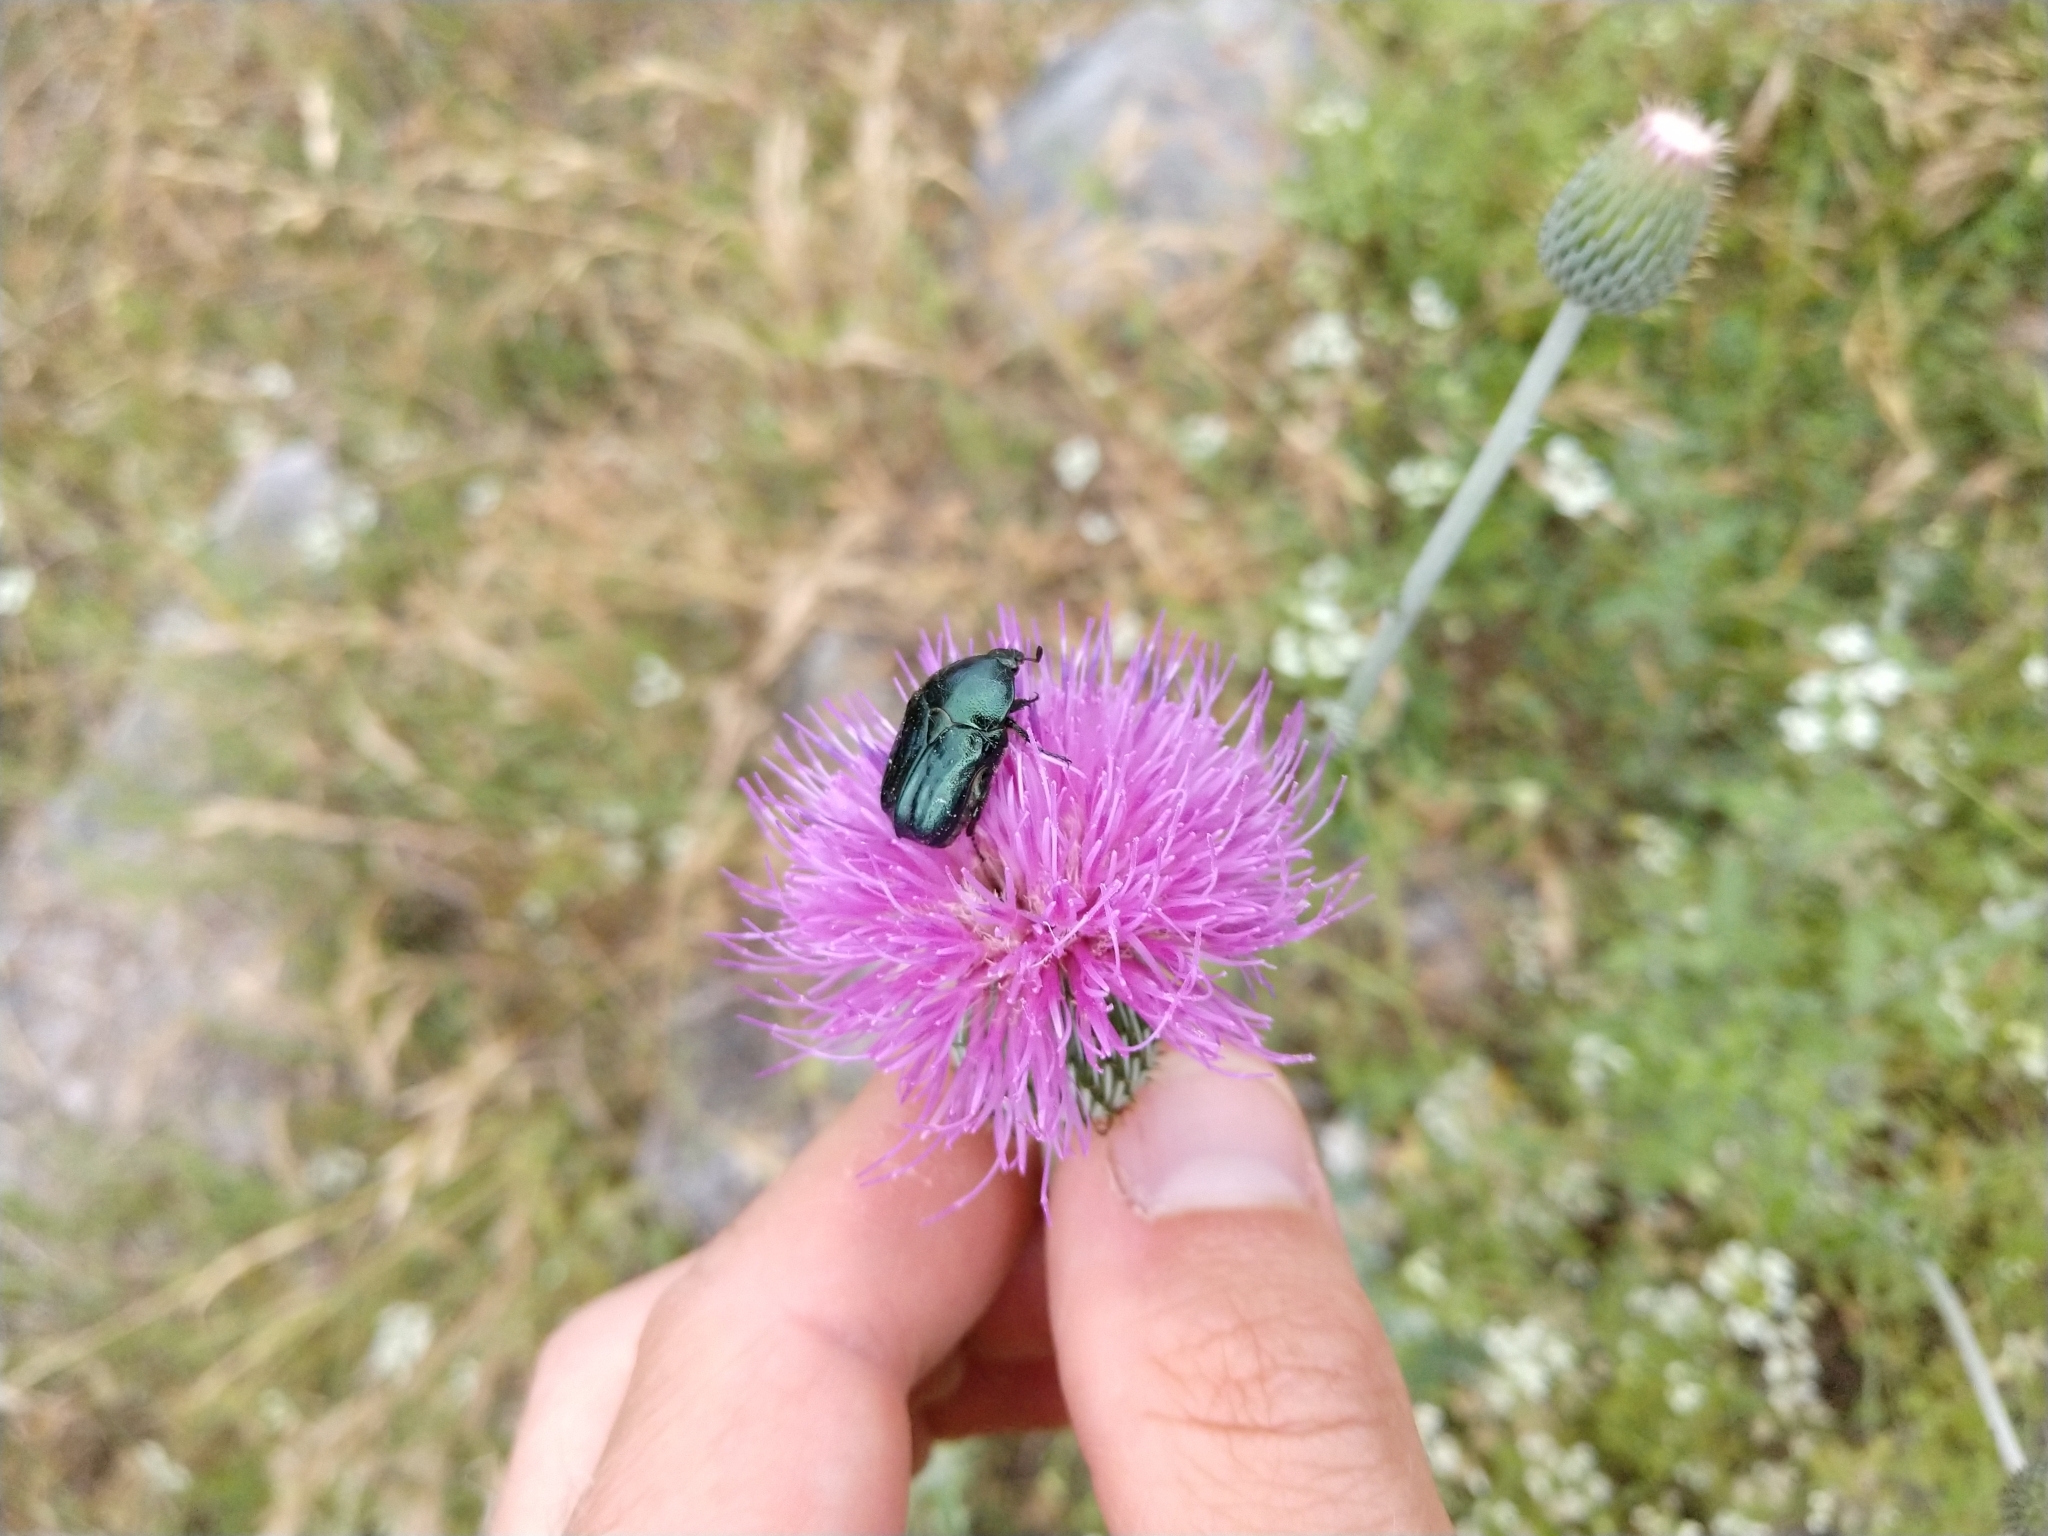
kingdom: Animalia
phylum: Arthropoda
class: Insecta
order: Coleoptera
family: Scarabaeidae
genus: Euphoria
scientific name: Euphoria sepulcralis
